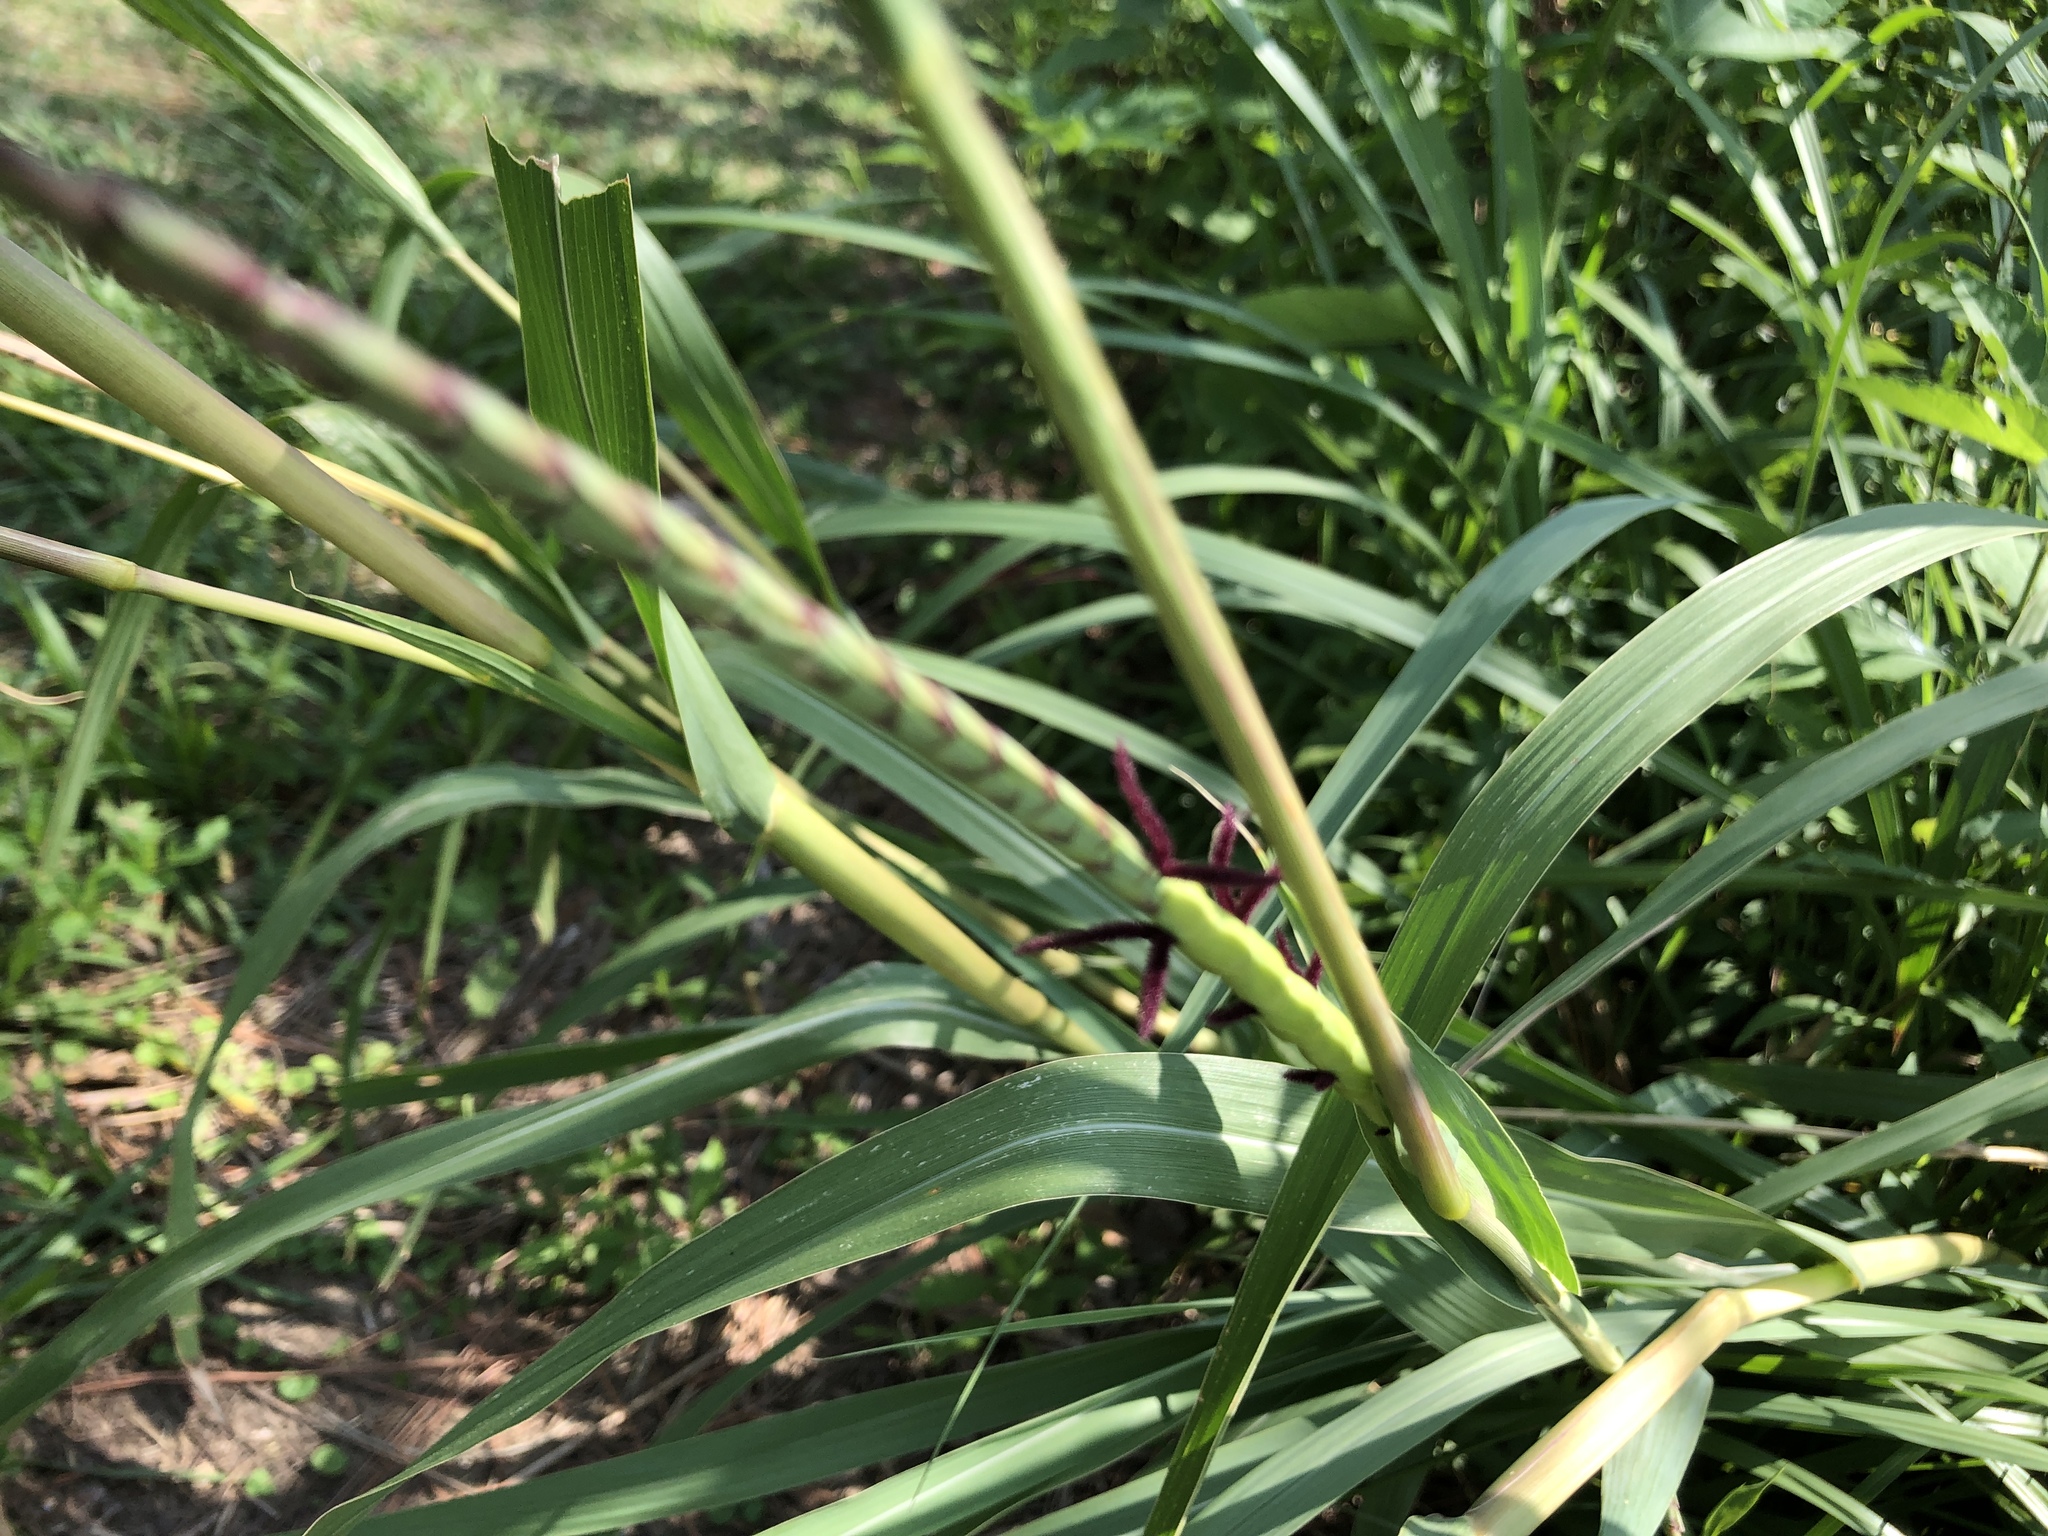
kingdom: Plantae
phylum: Tracheophyta
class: Liliopsida
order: Poales
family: Poaceae
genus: Tripsacum
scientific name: Tripsacum dactyloides
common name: Buffalo-grass
